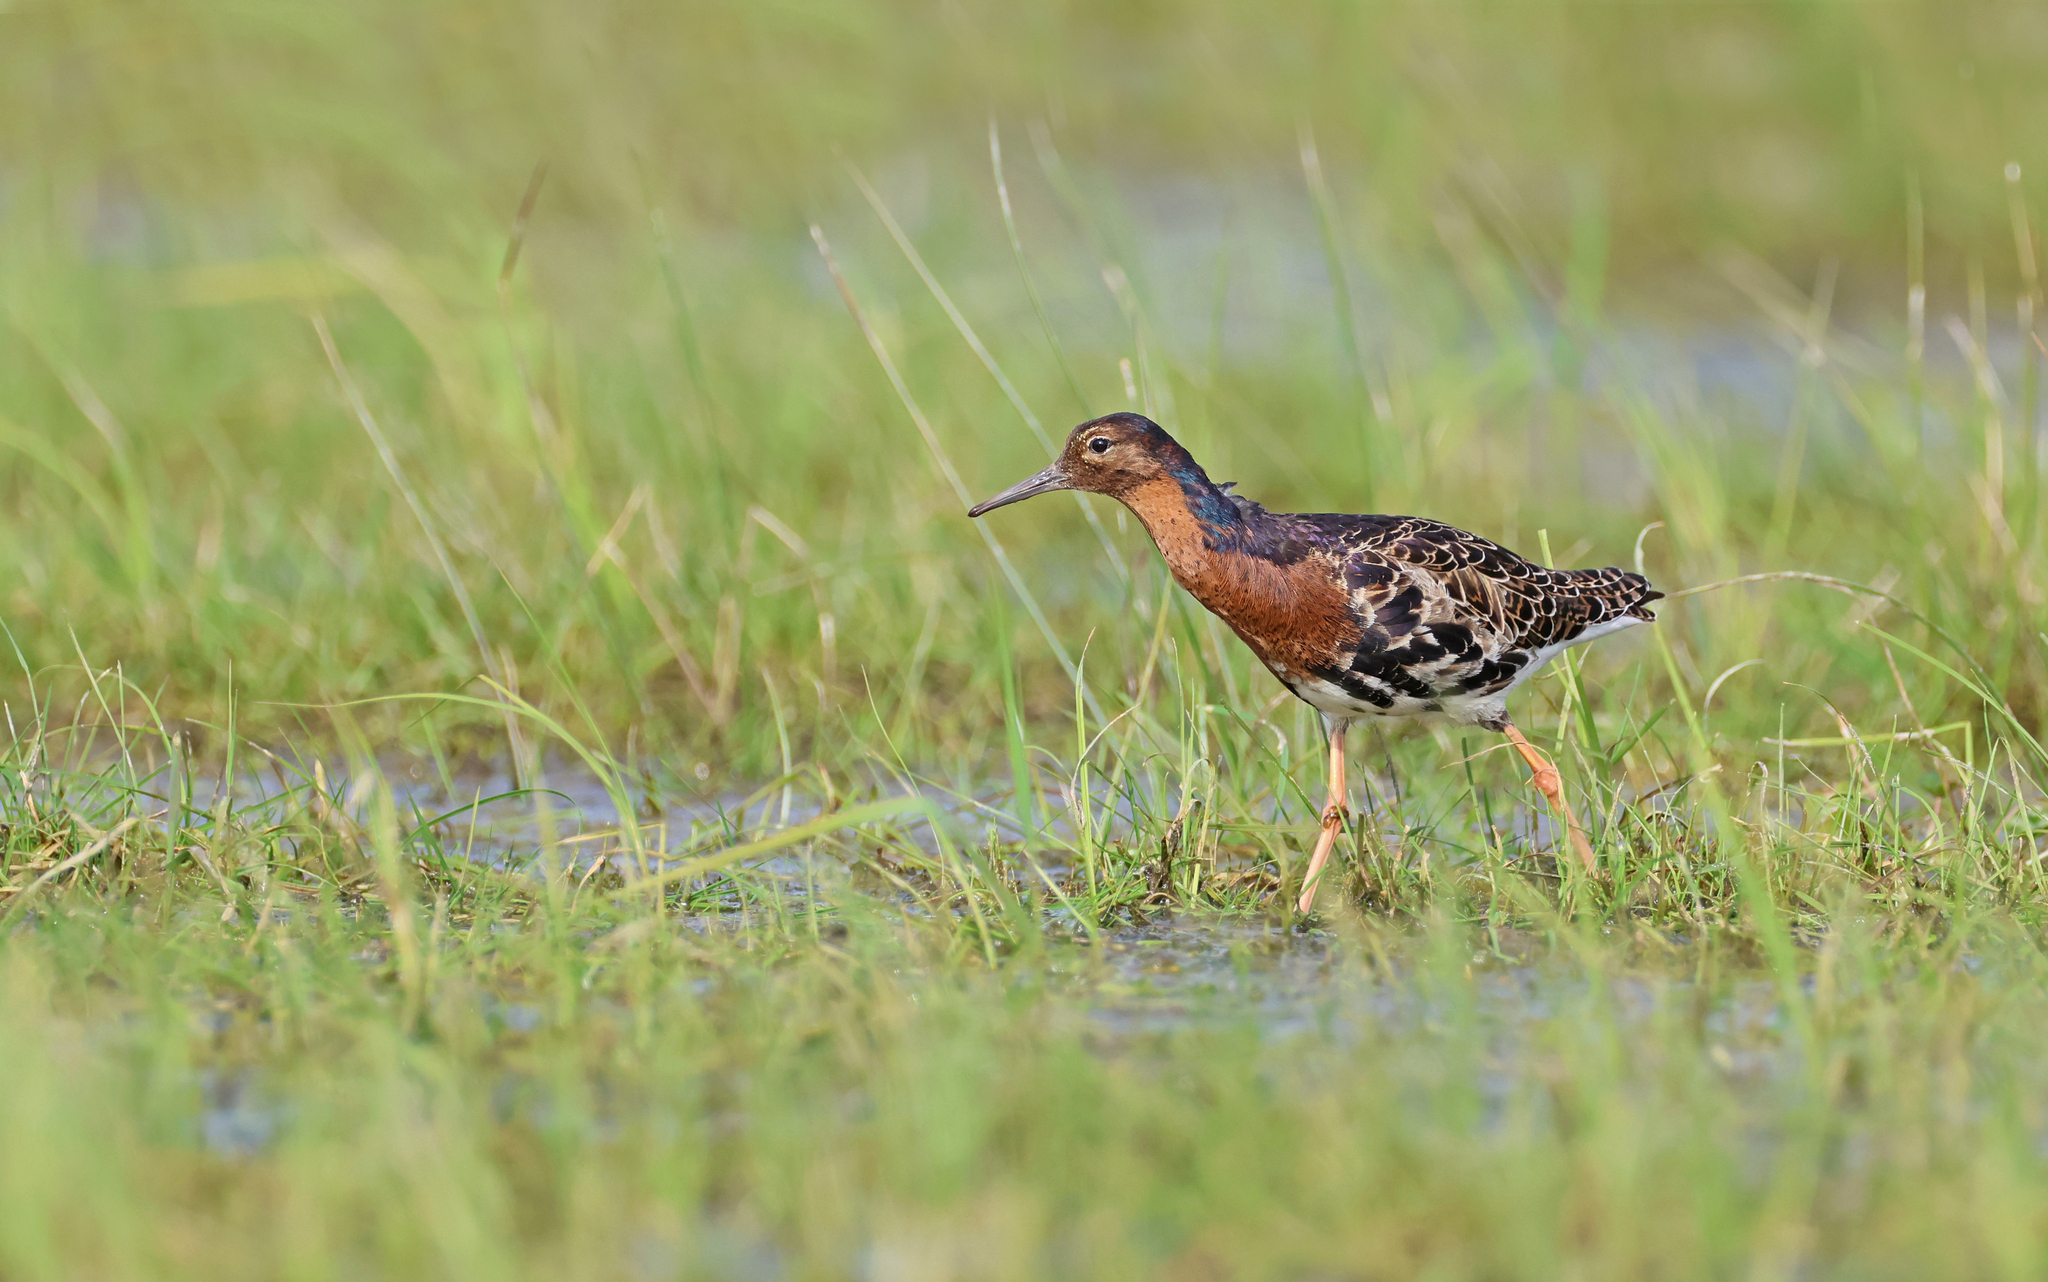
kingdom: Animalia
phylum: Chordata
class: Aves
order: Charadriiformes
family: Scolopacidae
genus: Calidris
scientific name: Calidris pugnax
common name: Ruff
